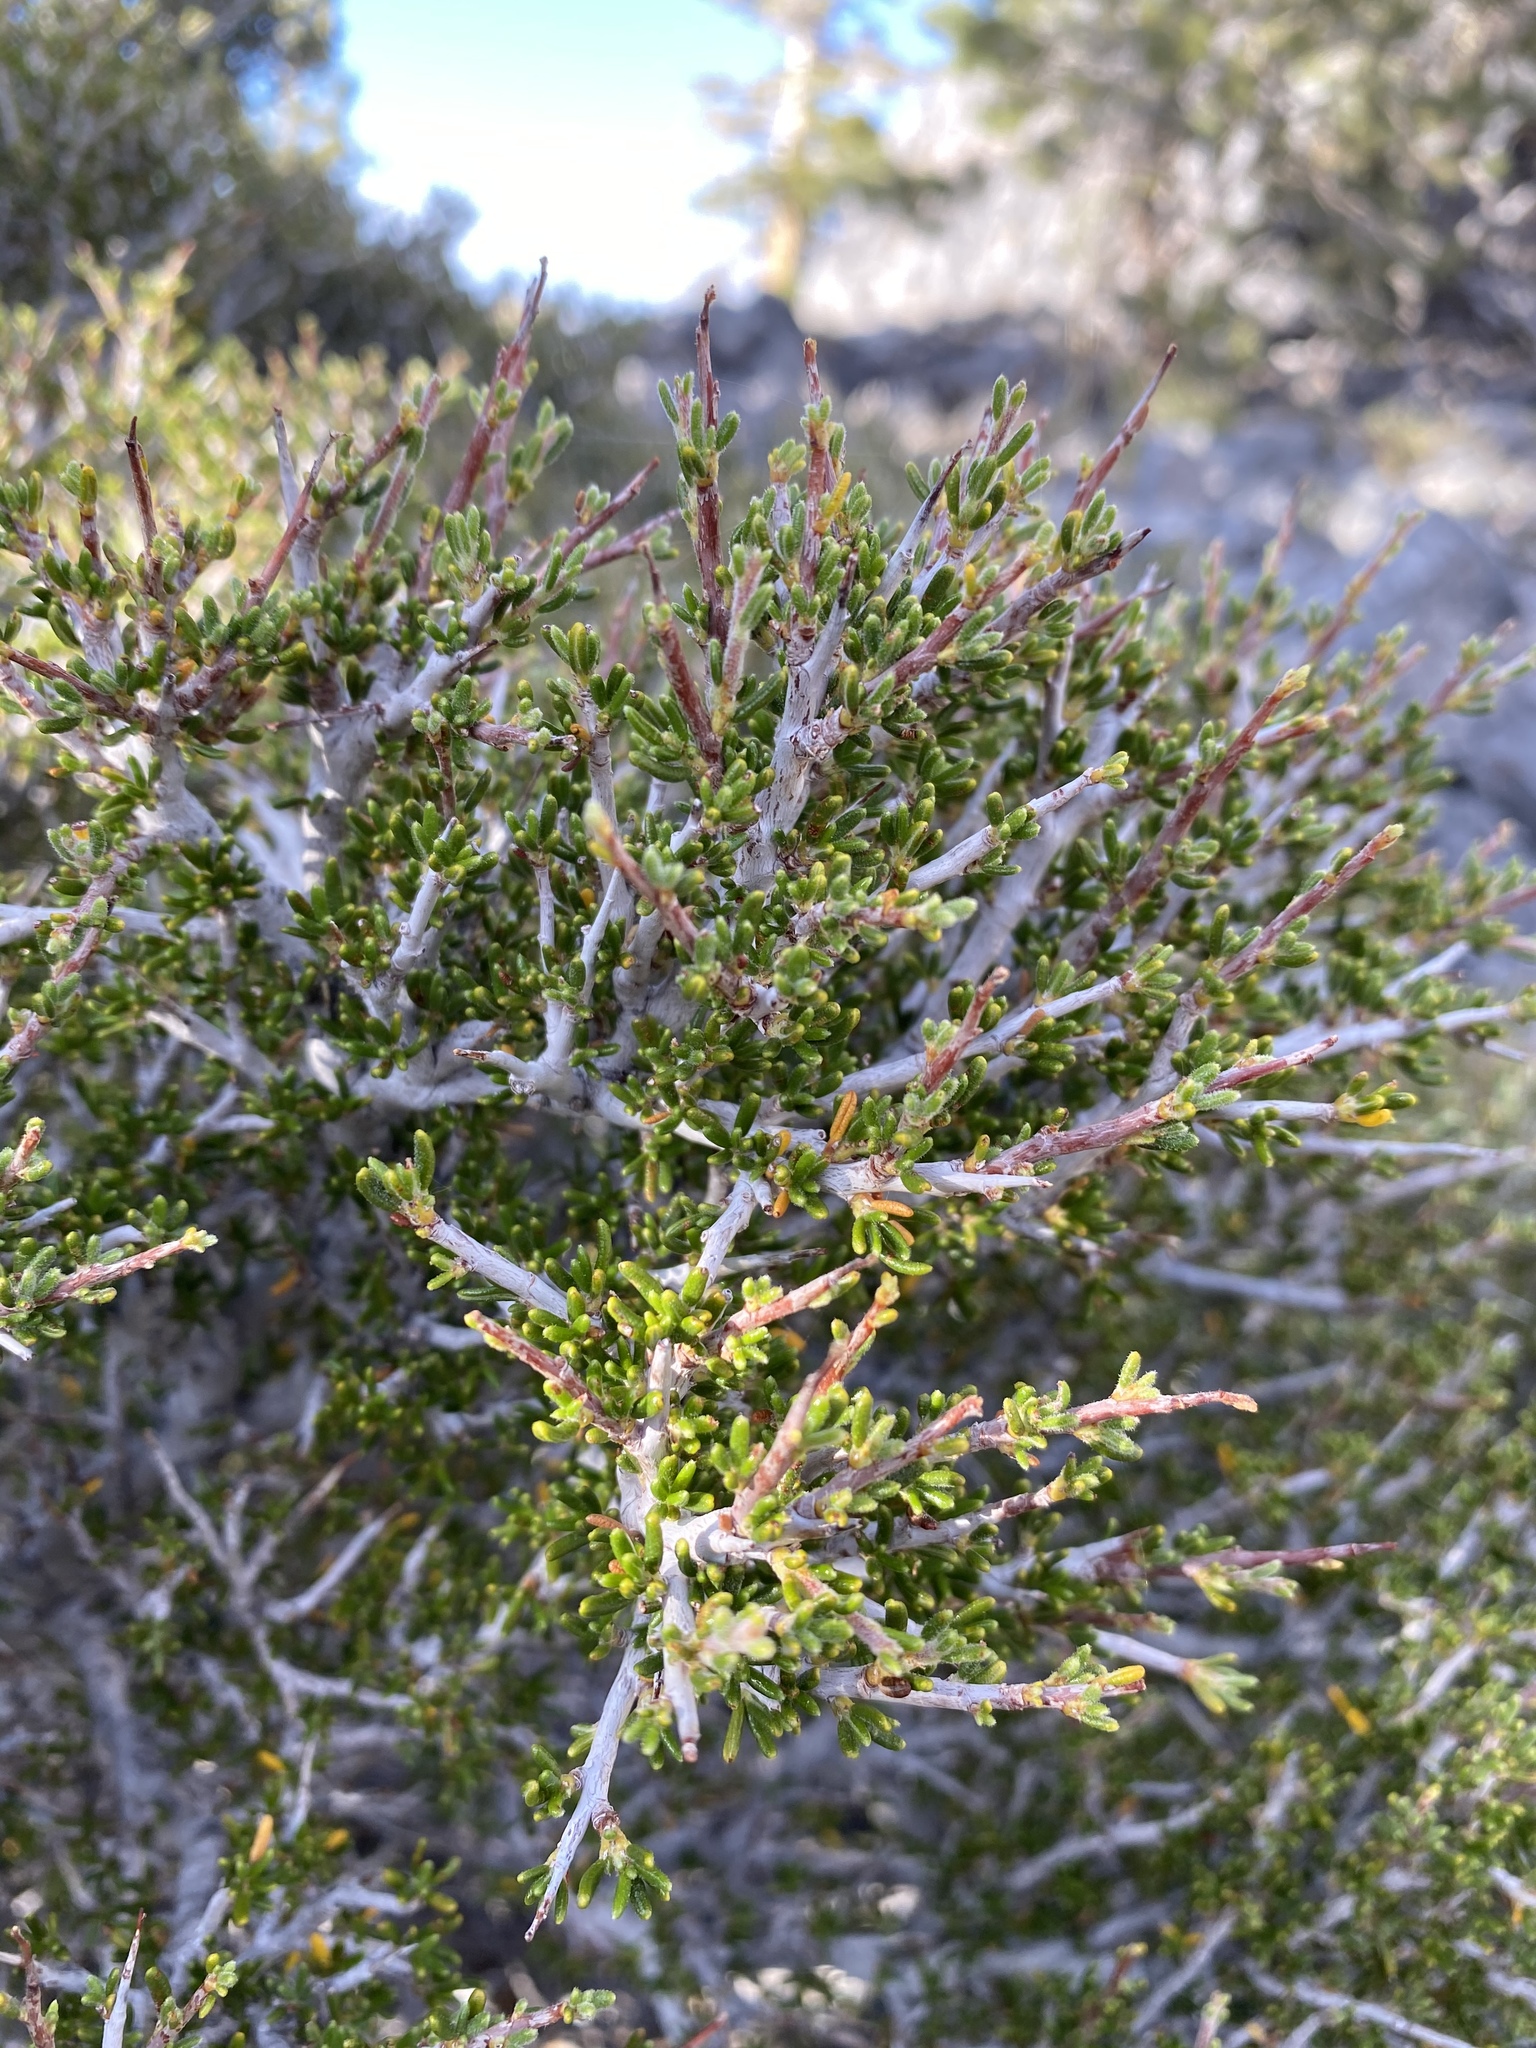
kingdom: Plantae
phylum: Tracheophyta
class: Magnoliopsida
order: Rosales
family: Rosaceae
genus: Cercocarpus
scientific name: Cercocarpus intricatus
